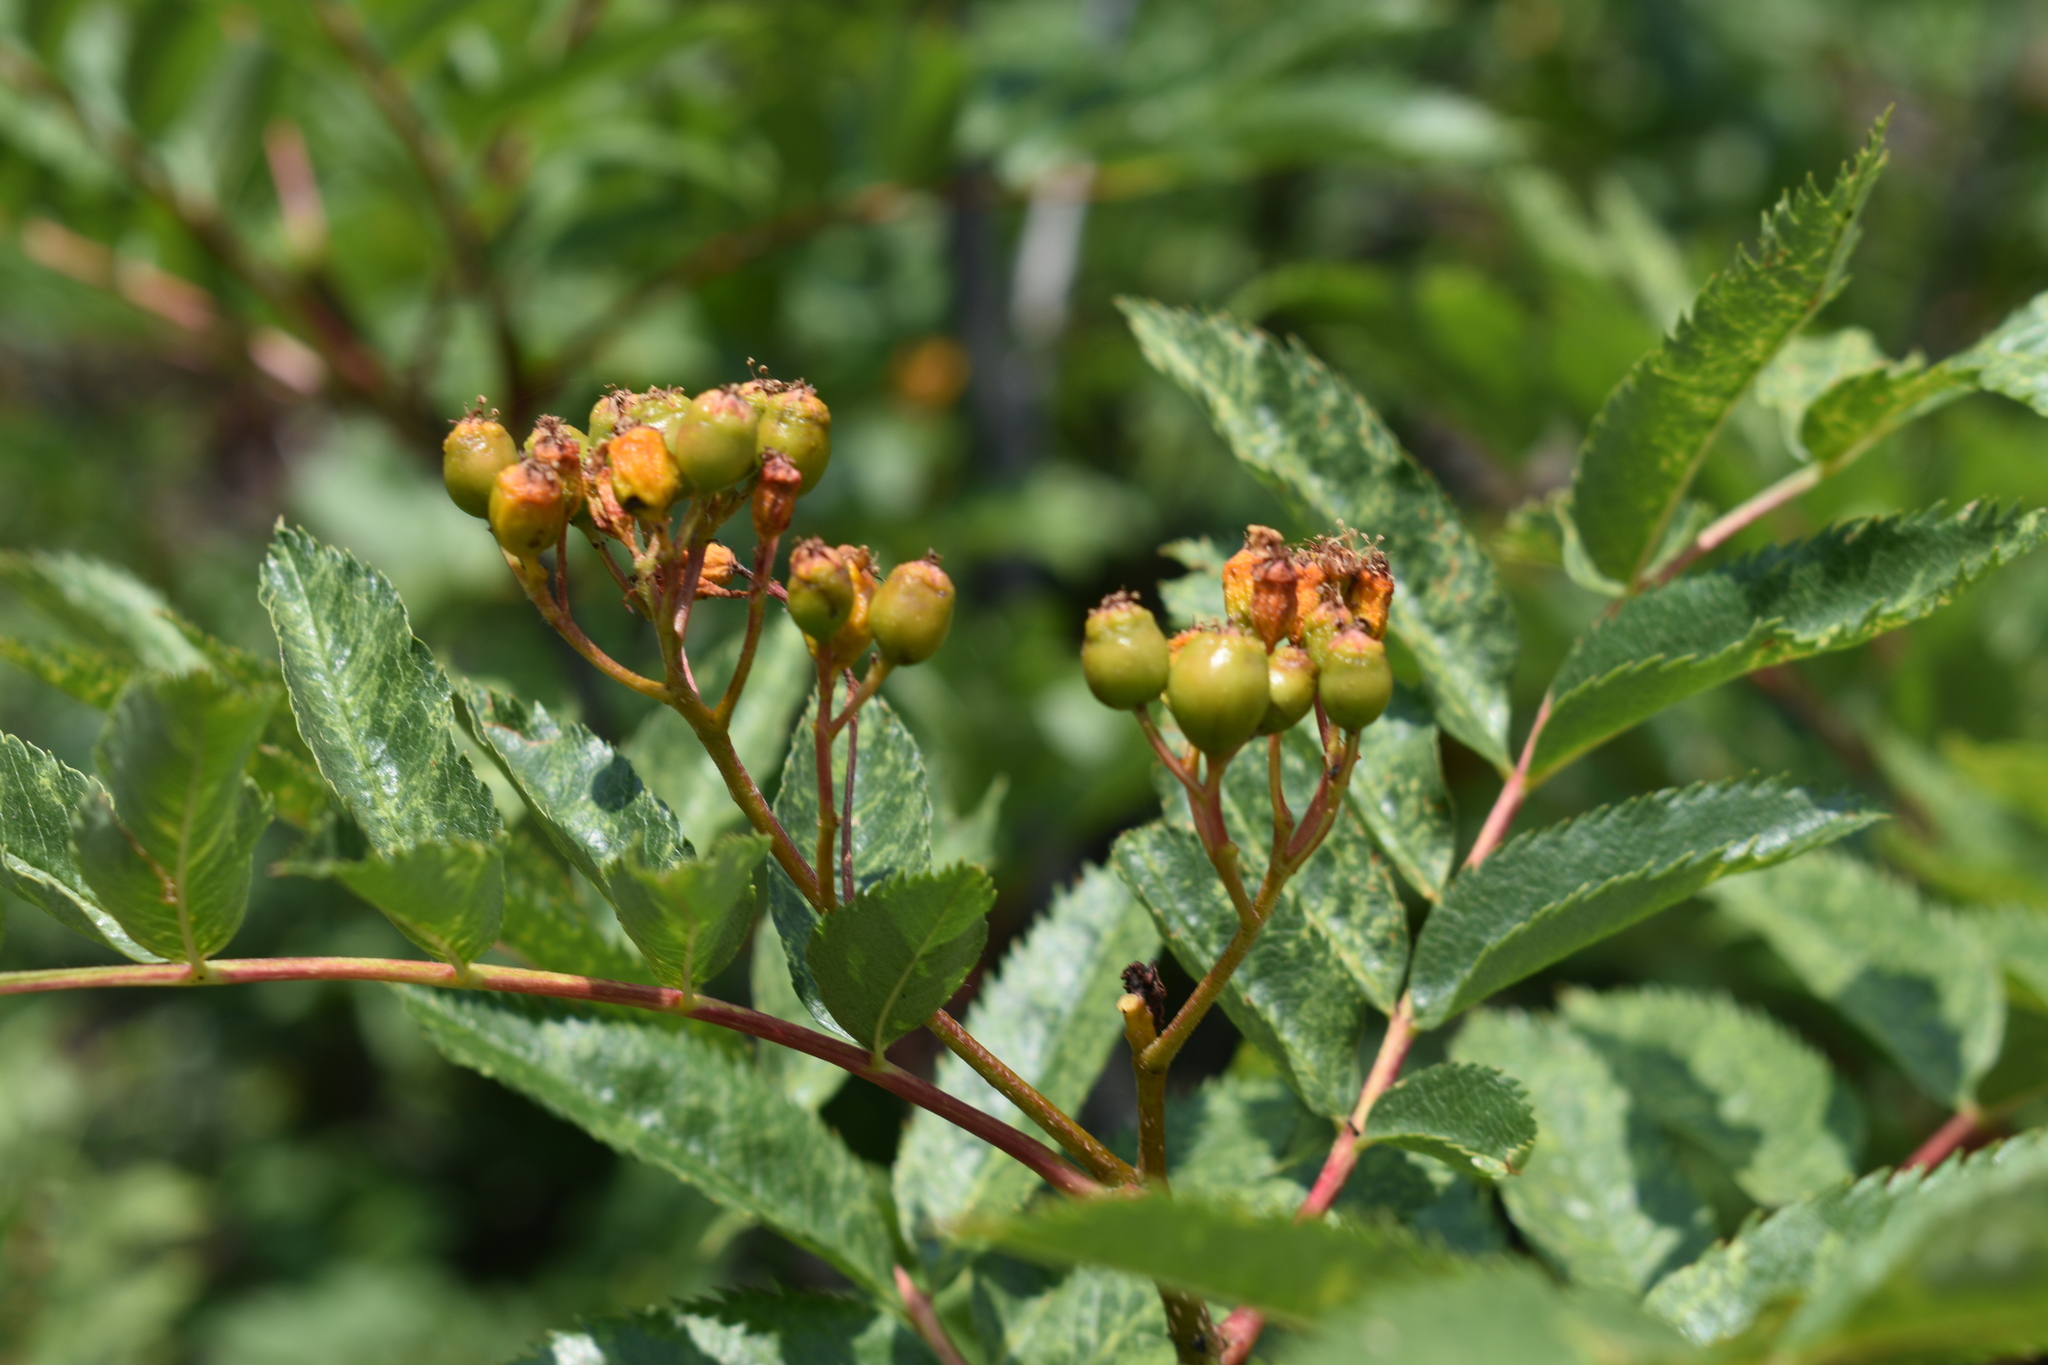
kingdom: Plantae
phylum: Tracheophyta
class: Magnoliopsida
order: Rosales
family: Rosaceae
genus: Sorbus
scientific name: Sorbus scopulina
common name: Greene's mountain-ash
